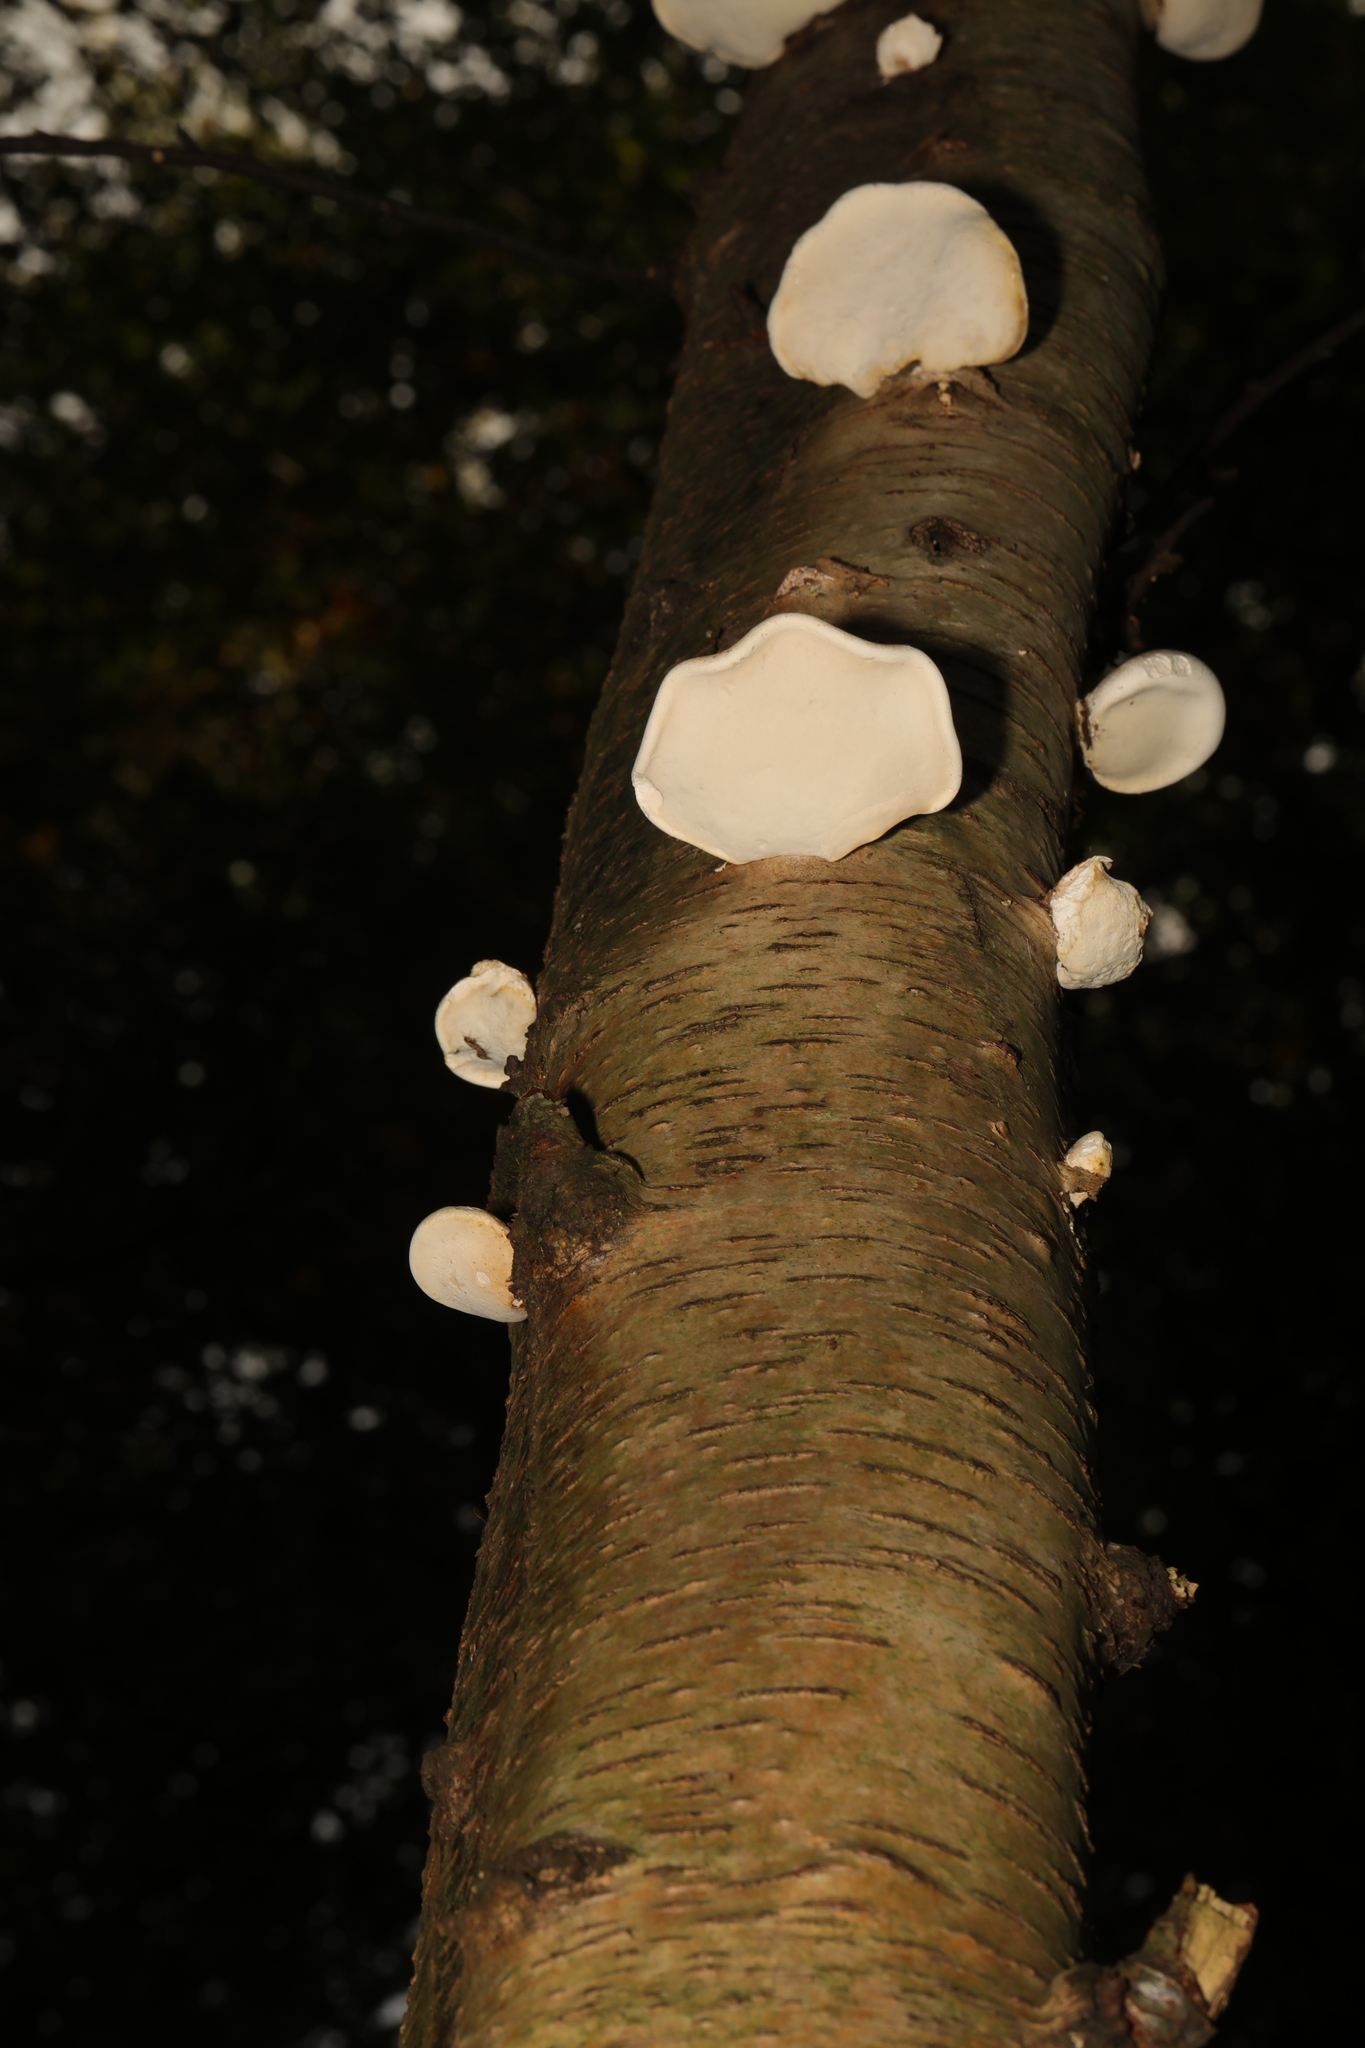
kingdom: Fungi
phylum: Basidiomycota
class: Agaricomycetes
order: Polyporales
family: Fomitopsidaceae
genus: Fomitopsis
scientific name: Fomitopsis betulina
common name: Birch polypore
